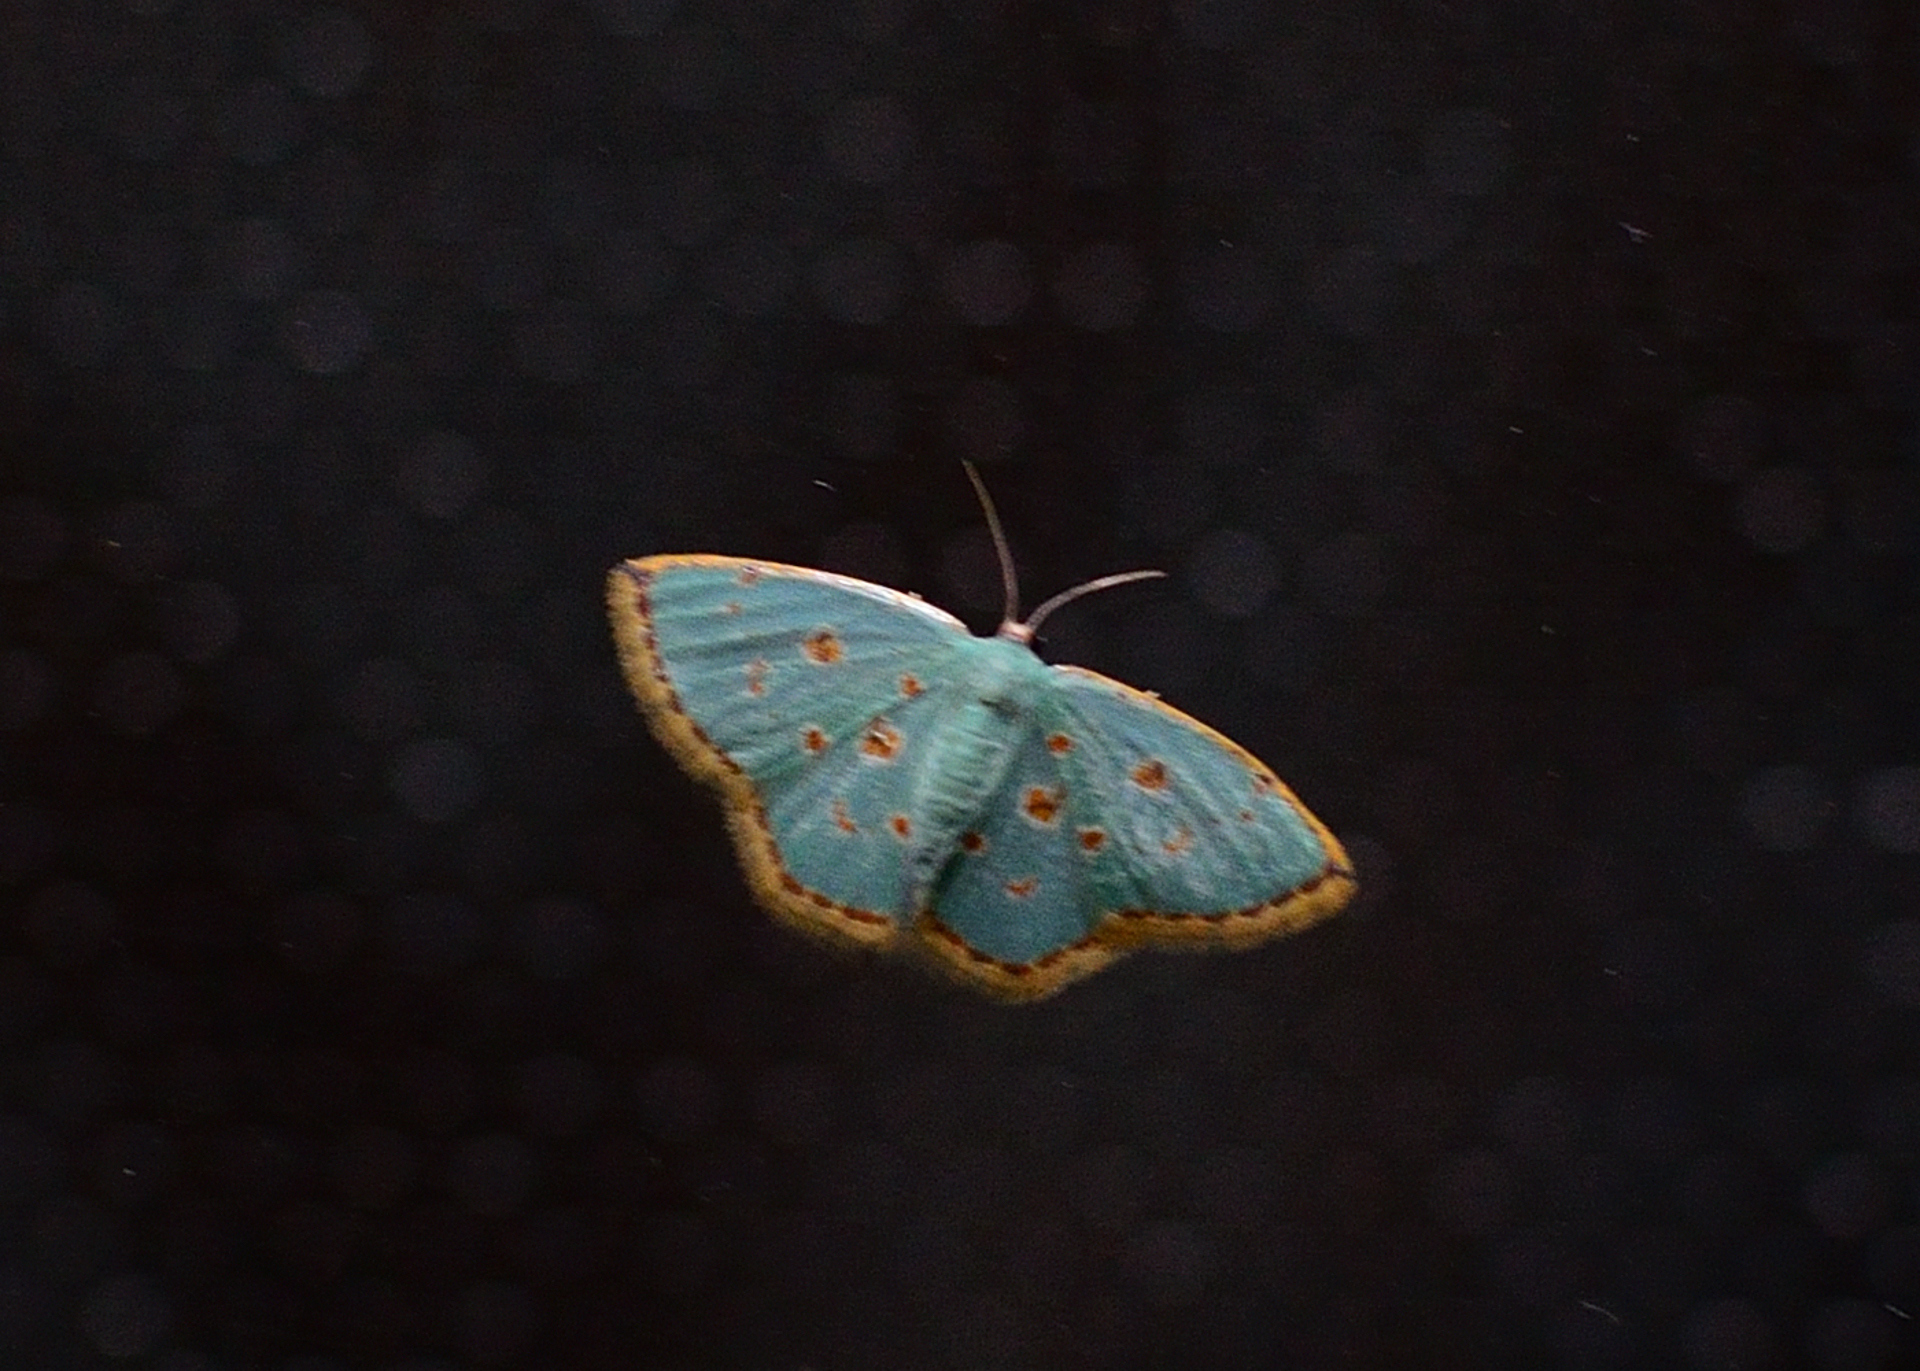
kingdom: Animalia
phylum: Arthropoda
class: Insecta
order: Lepidoptera
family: Geometridae
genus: Comostola
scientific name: Comostola laesaria
